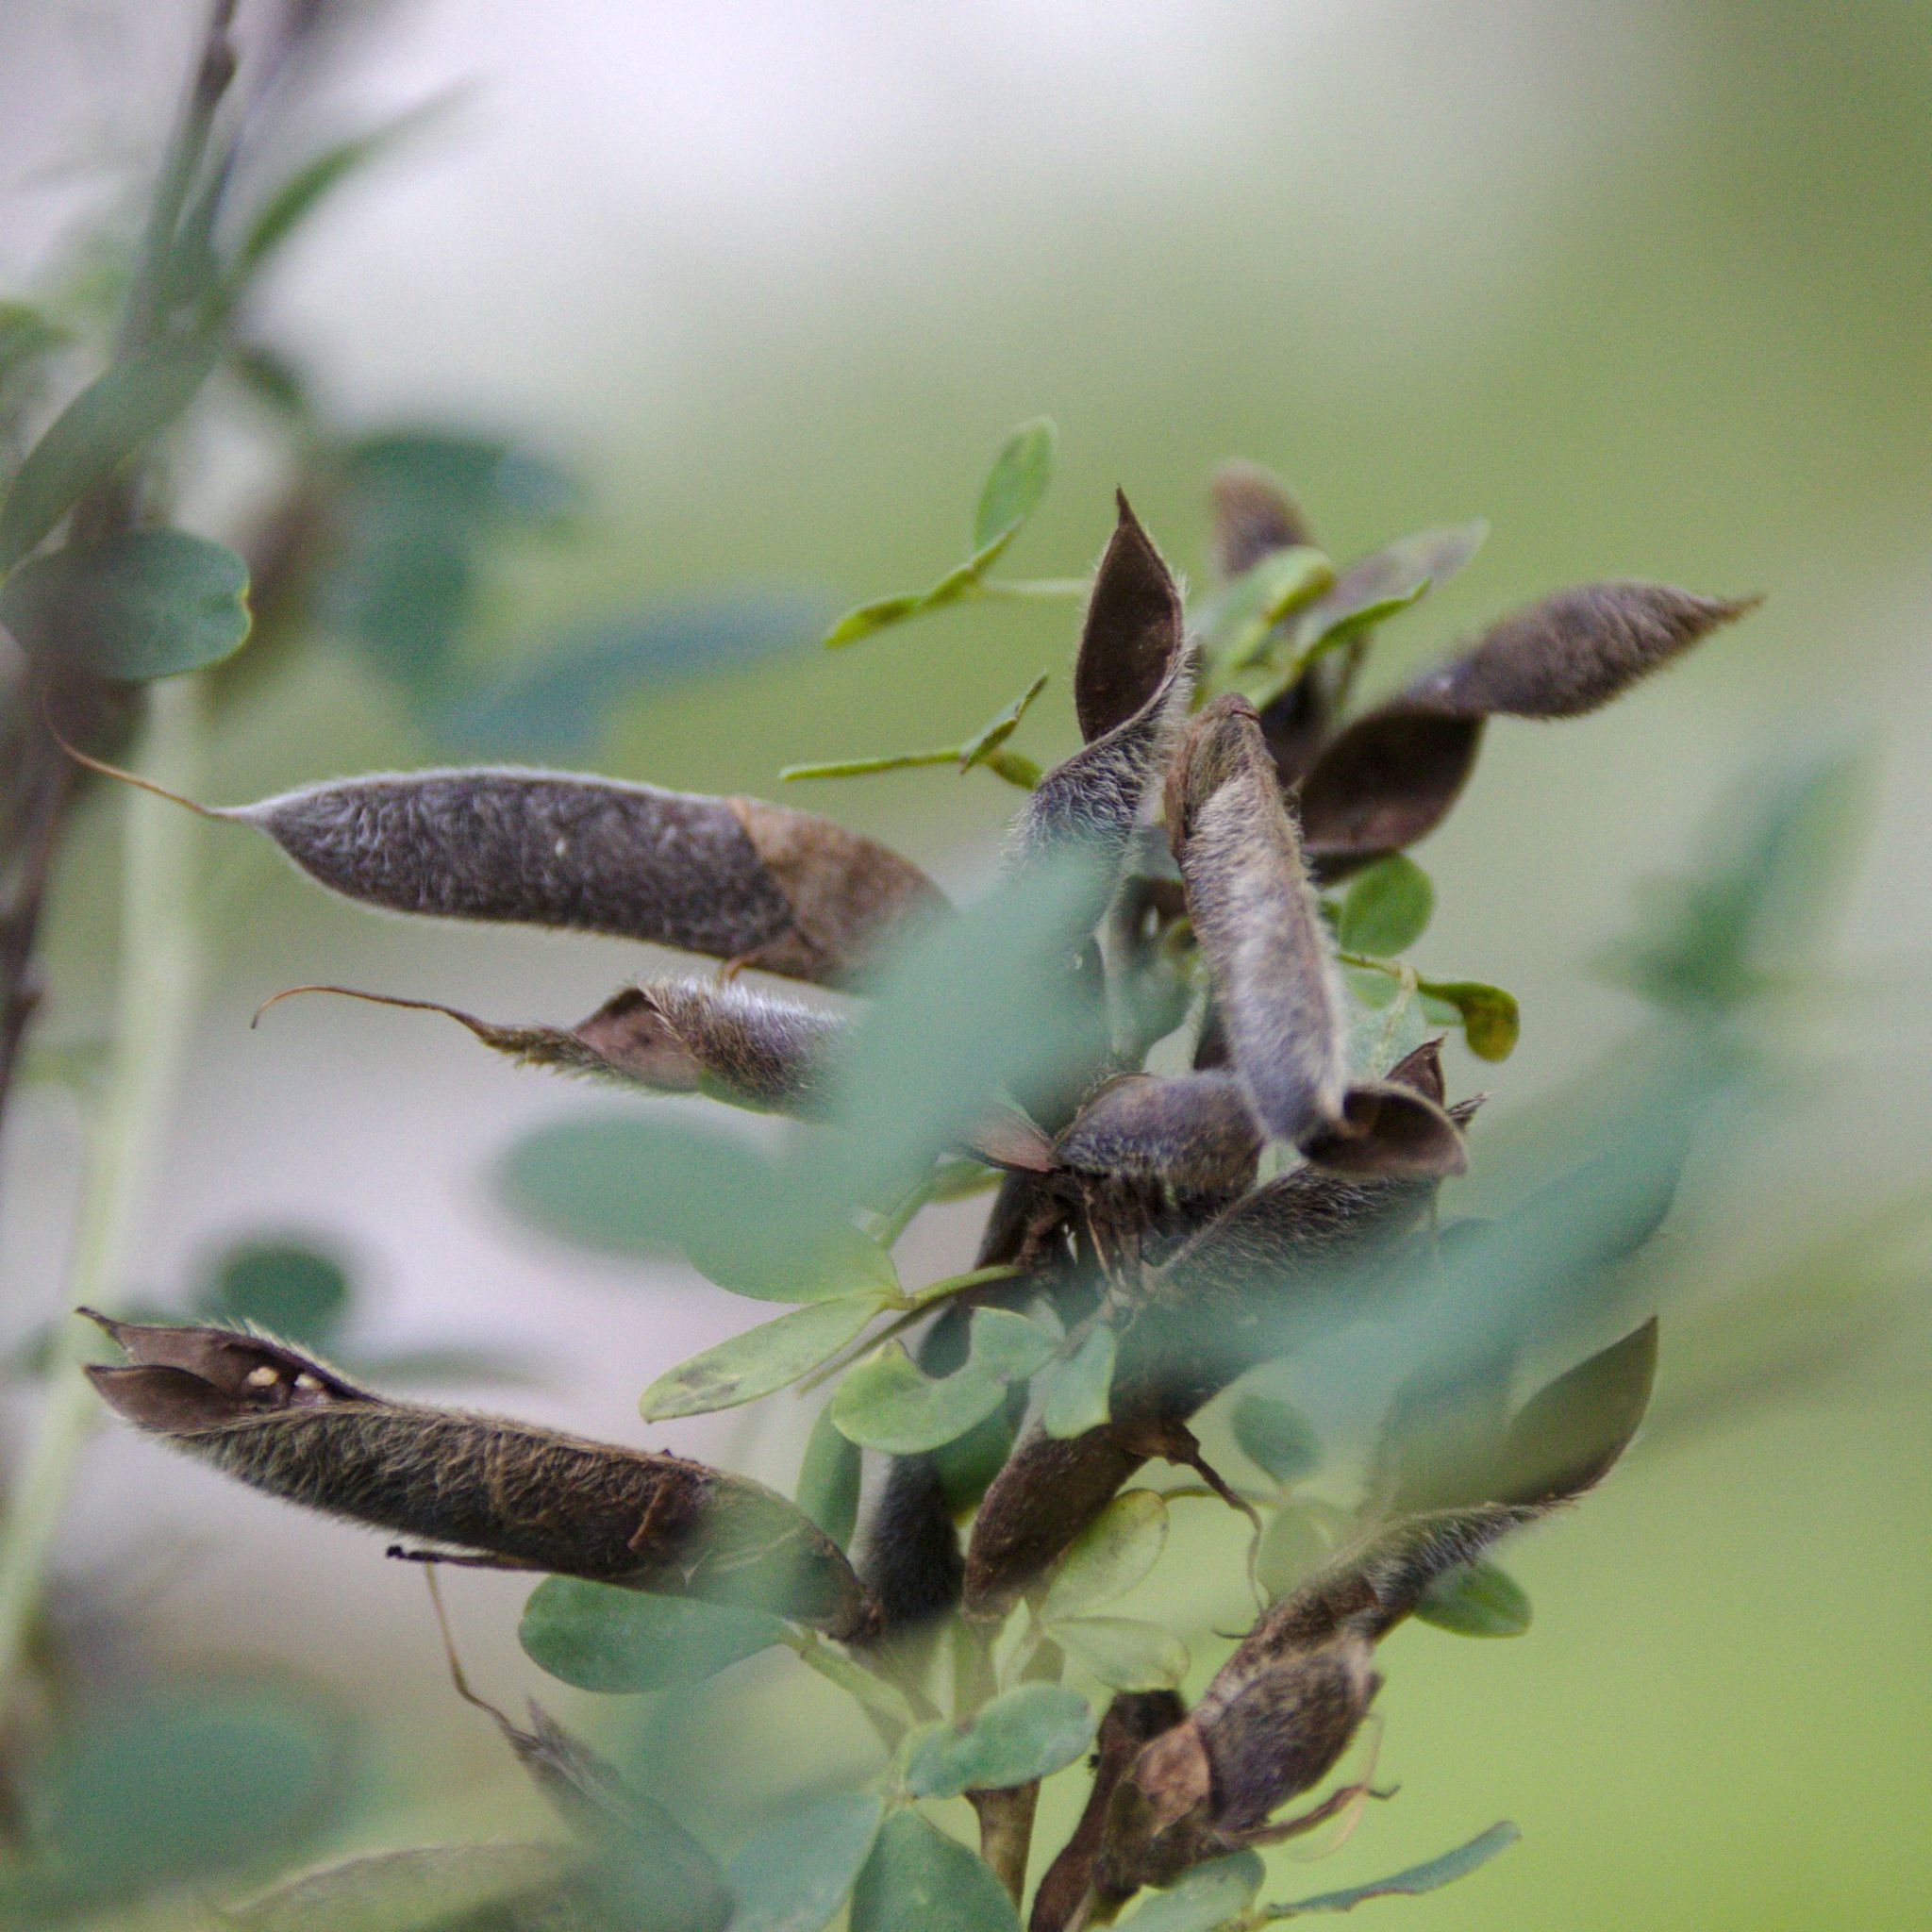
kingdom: Plantae
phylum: Tracheophyta
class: Magnoliopsida
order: Fabales
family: Fabaceae
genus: Chamaecytisus
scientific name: Chamaecytisus ruthenicus
